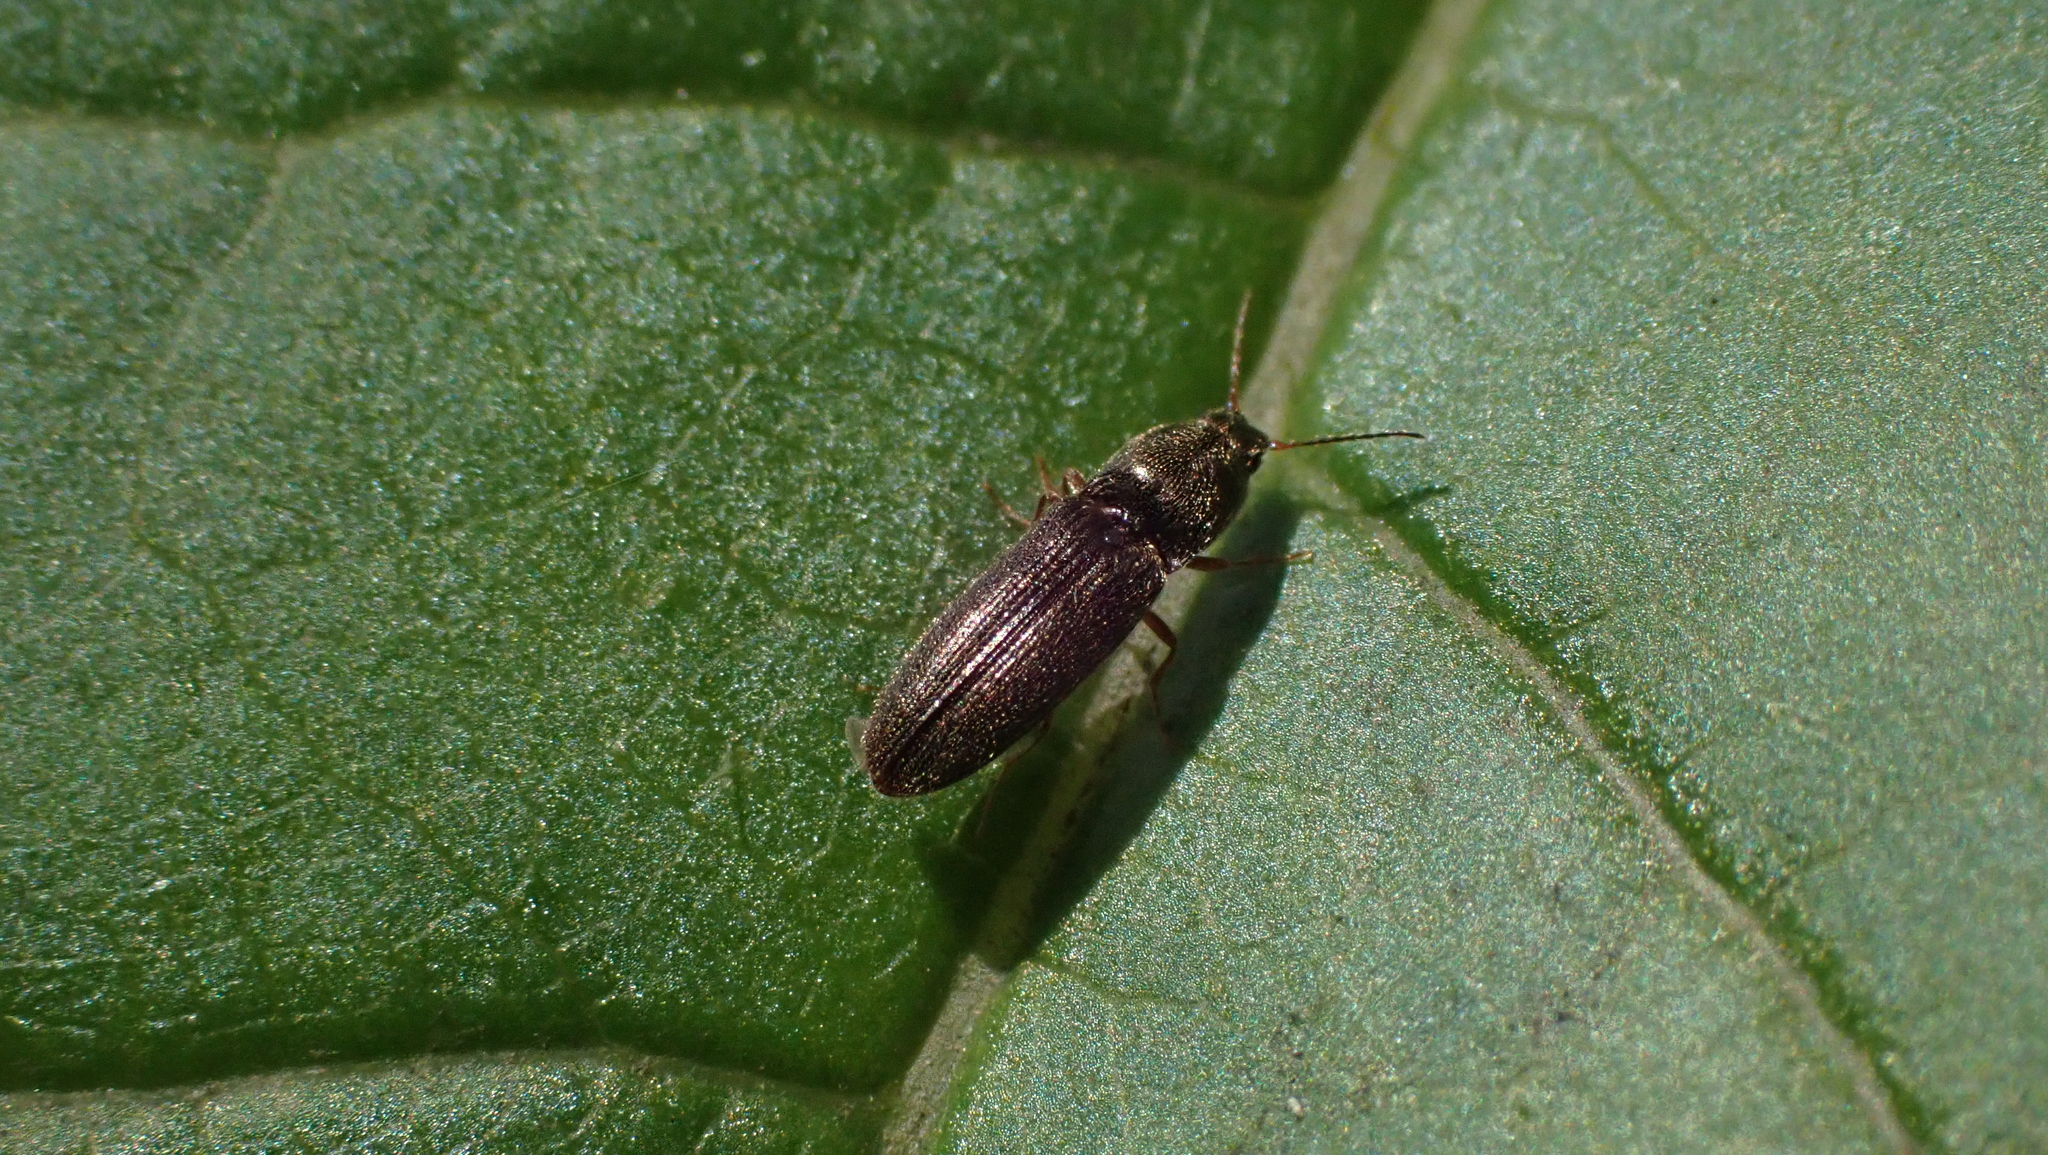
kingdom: Animalia
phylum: Arthropoda
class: Insecta
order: Coleoptera
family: Elateridae
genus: Limonius
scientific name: Limonius quercinus
